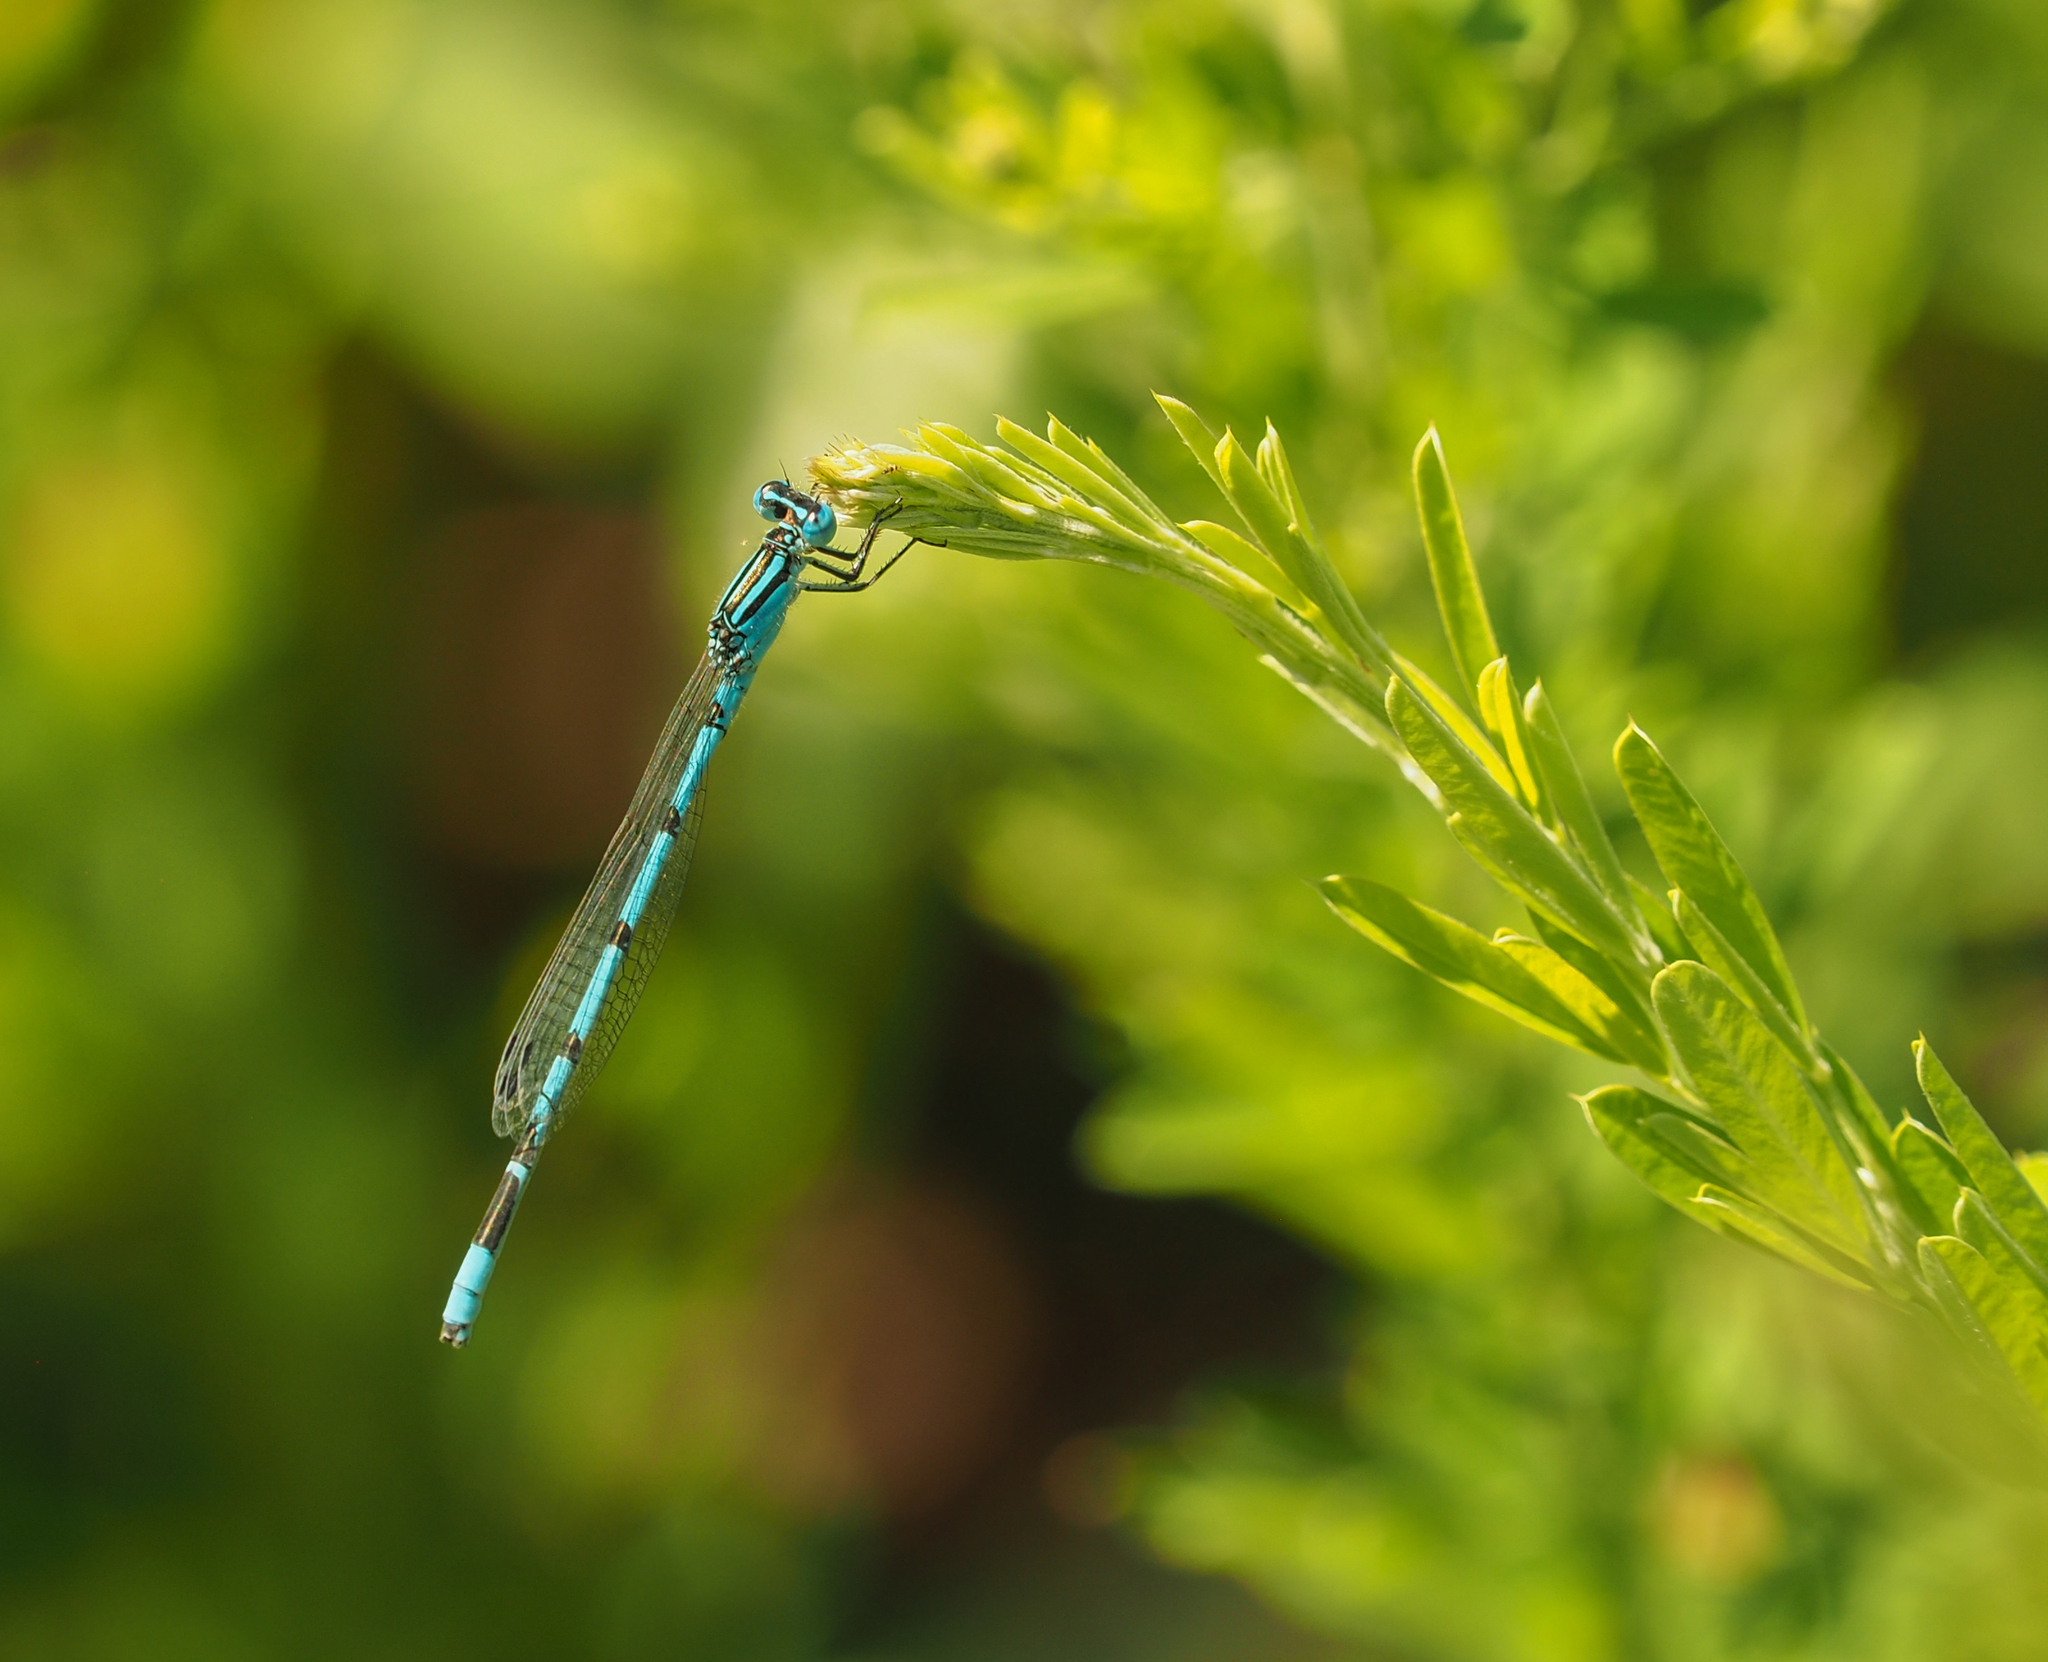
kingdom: Animalia
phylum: Arthropoda
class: Insecta
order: Odonata
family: Coenagrionidae
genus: Enallagma
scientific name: Enallagma durum
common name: Big bluet
